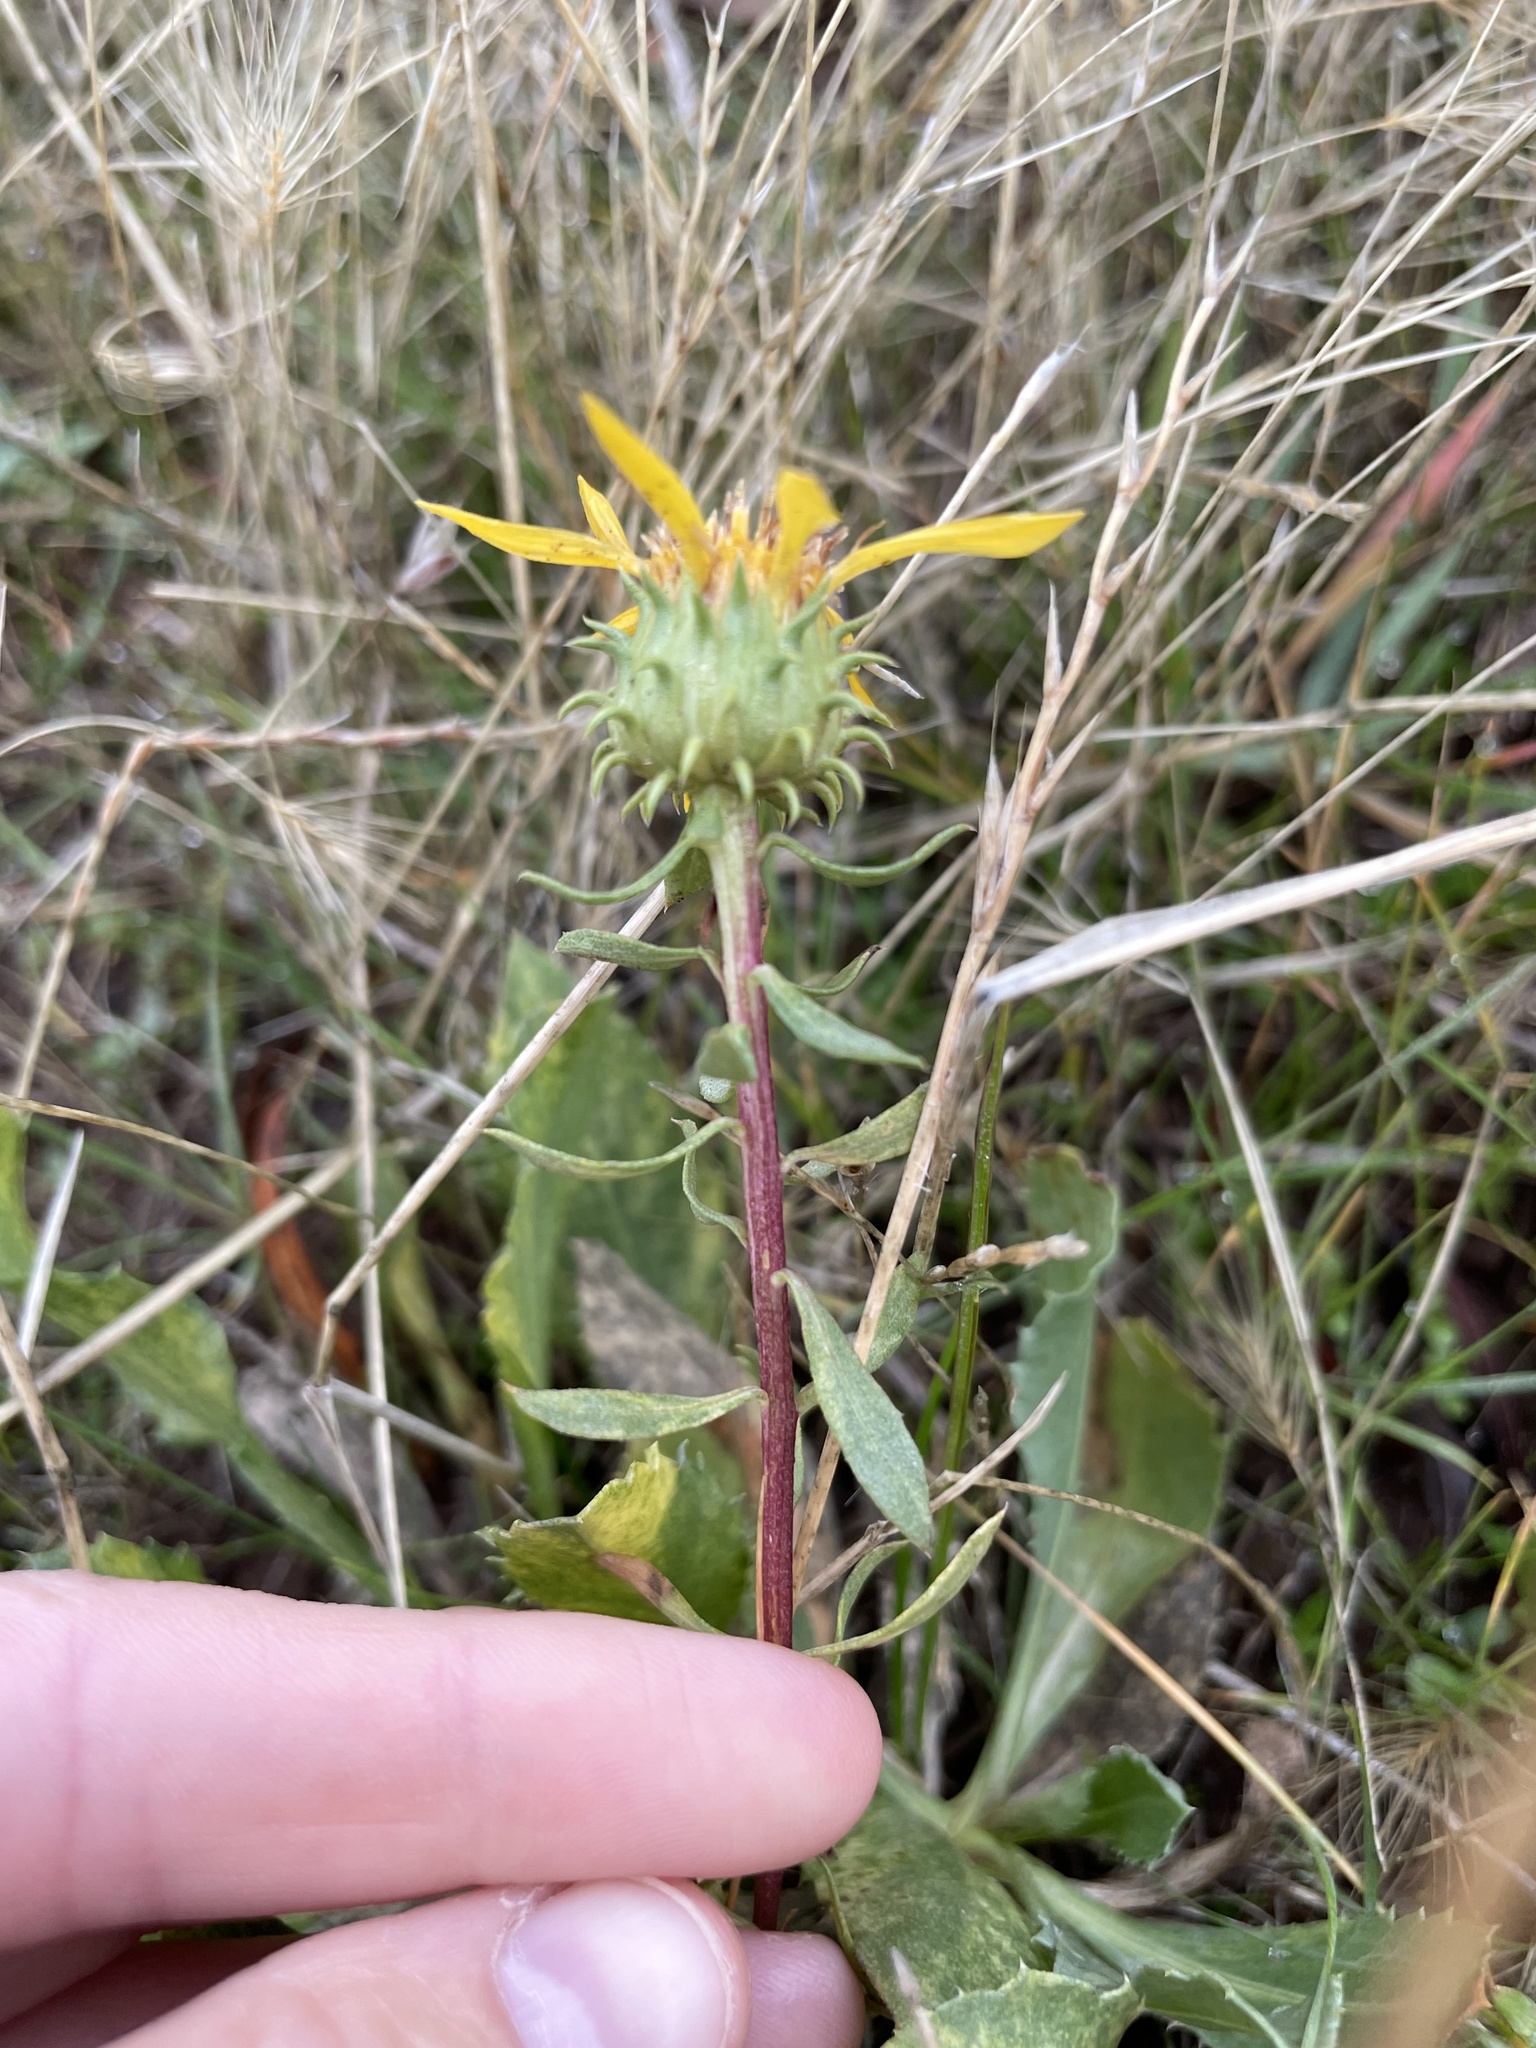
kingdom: Plantae
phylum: Tracheophyta
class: Magnoliopsida
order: Asterales
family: Asteraceae
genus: Grindelia
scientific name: Grindelia hirsutula
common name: Hairy gumweed
